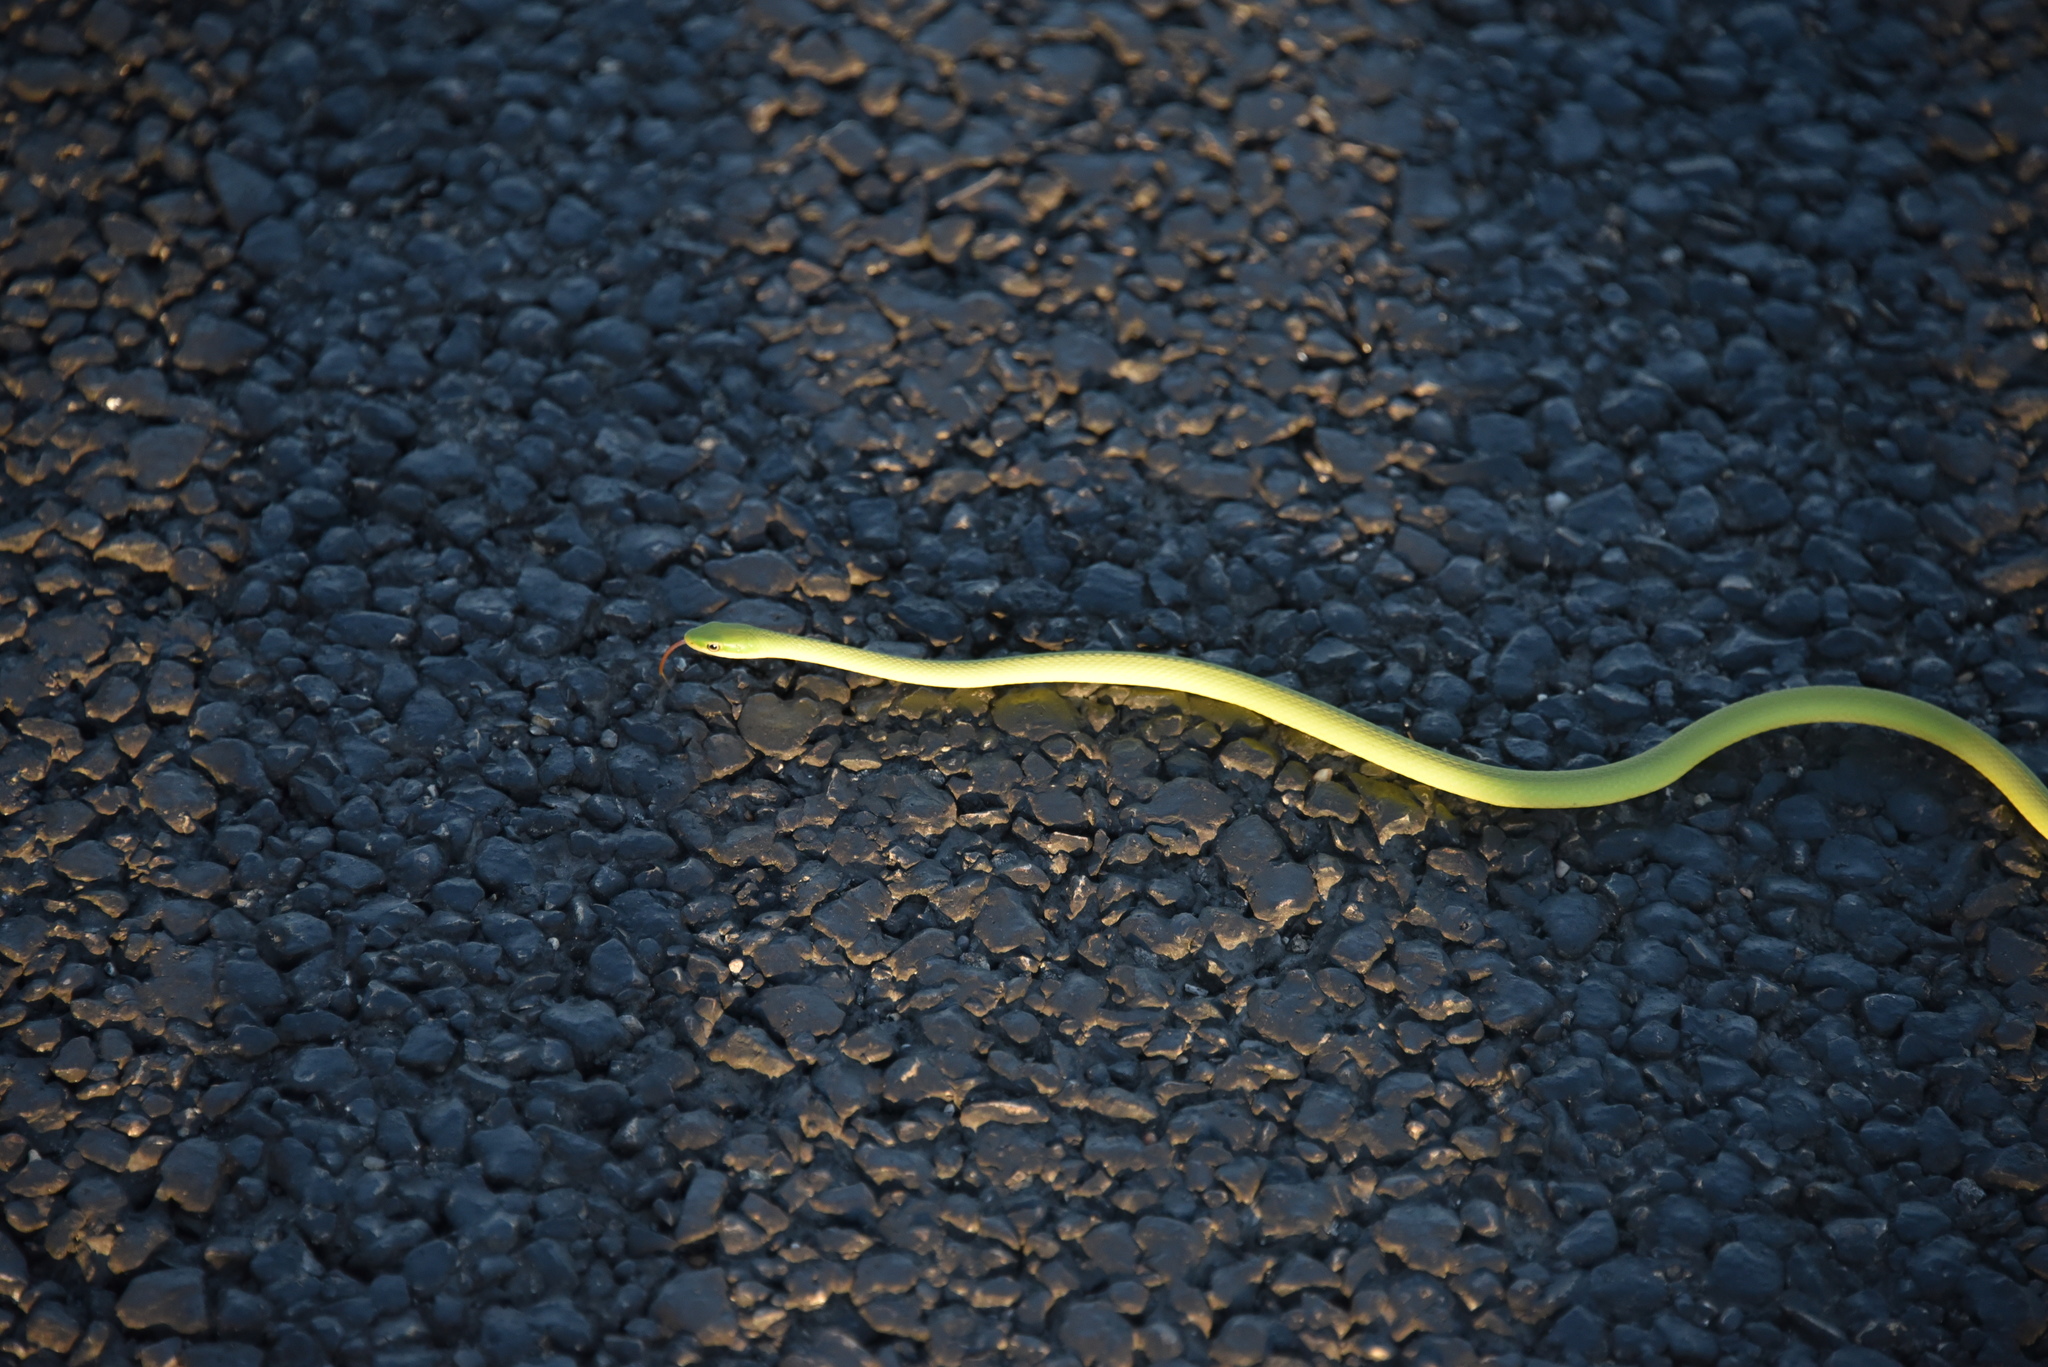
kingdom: Animalia
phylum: Chordata
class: Squamata
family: Colubridae
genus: Opheodrys
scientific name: Opheodrys aestivus
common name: Rough greensnake
